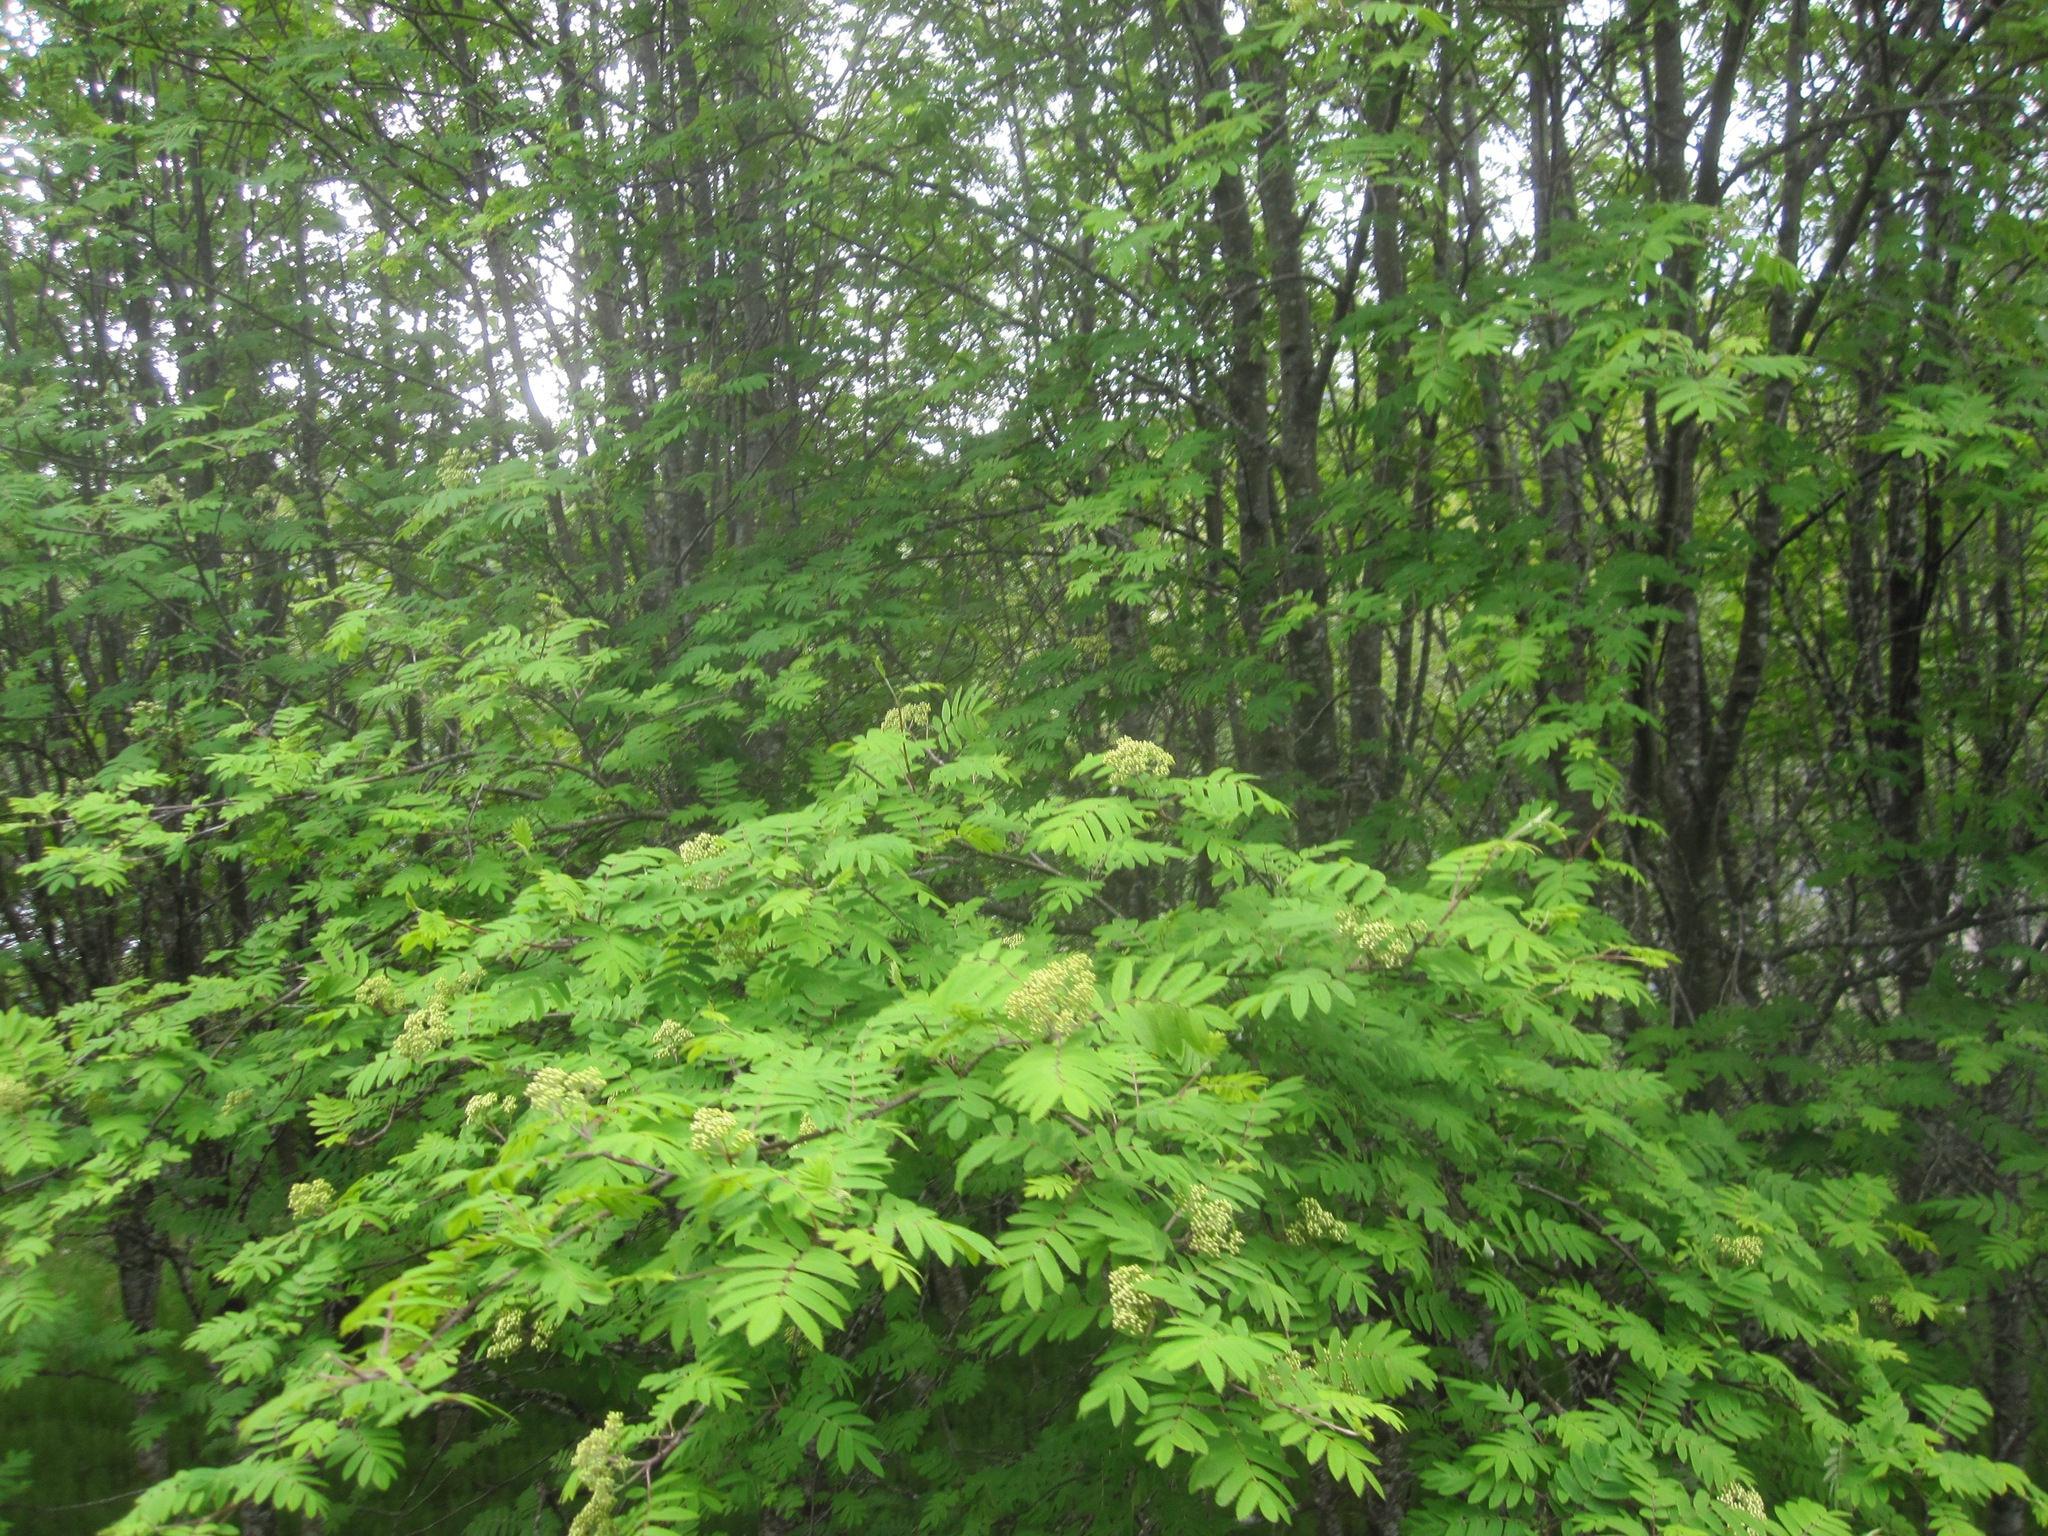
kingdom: Plantae
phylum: Tracheophyta
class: Magnoliopsida
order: Rosales
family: Rosaceae
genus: Sorbus
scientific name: Sorbus aucuparia
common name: Rowan
